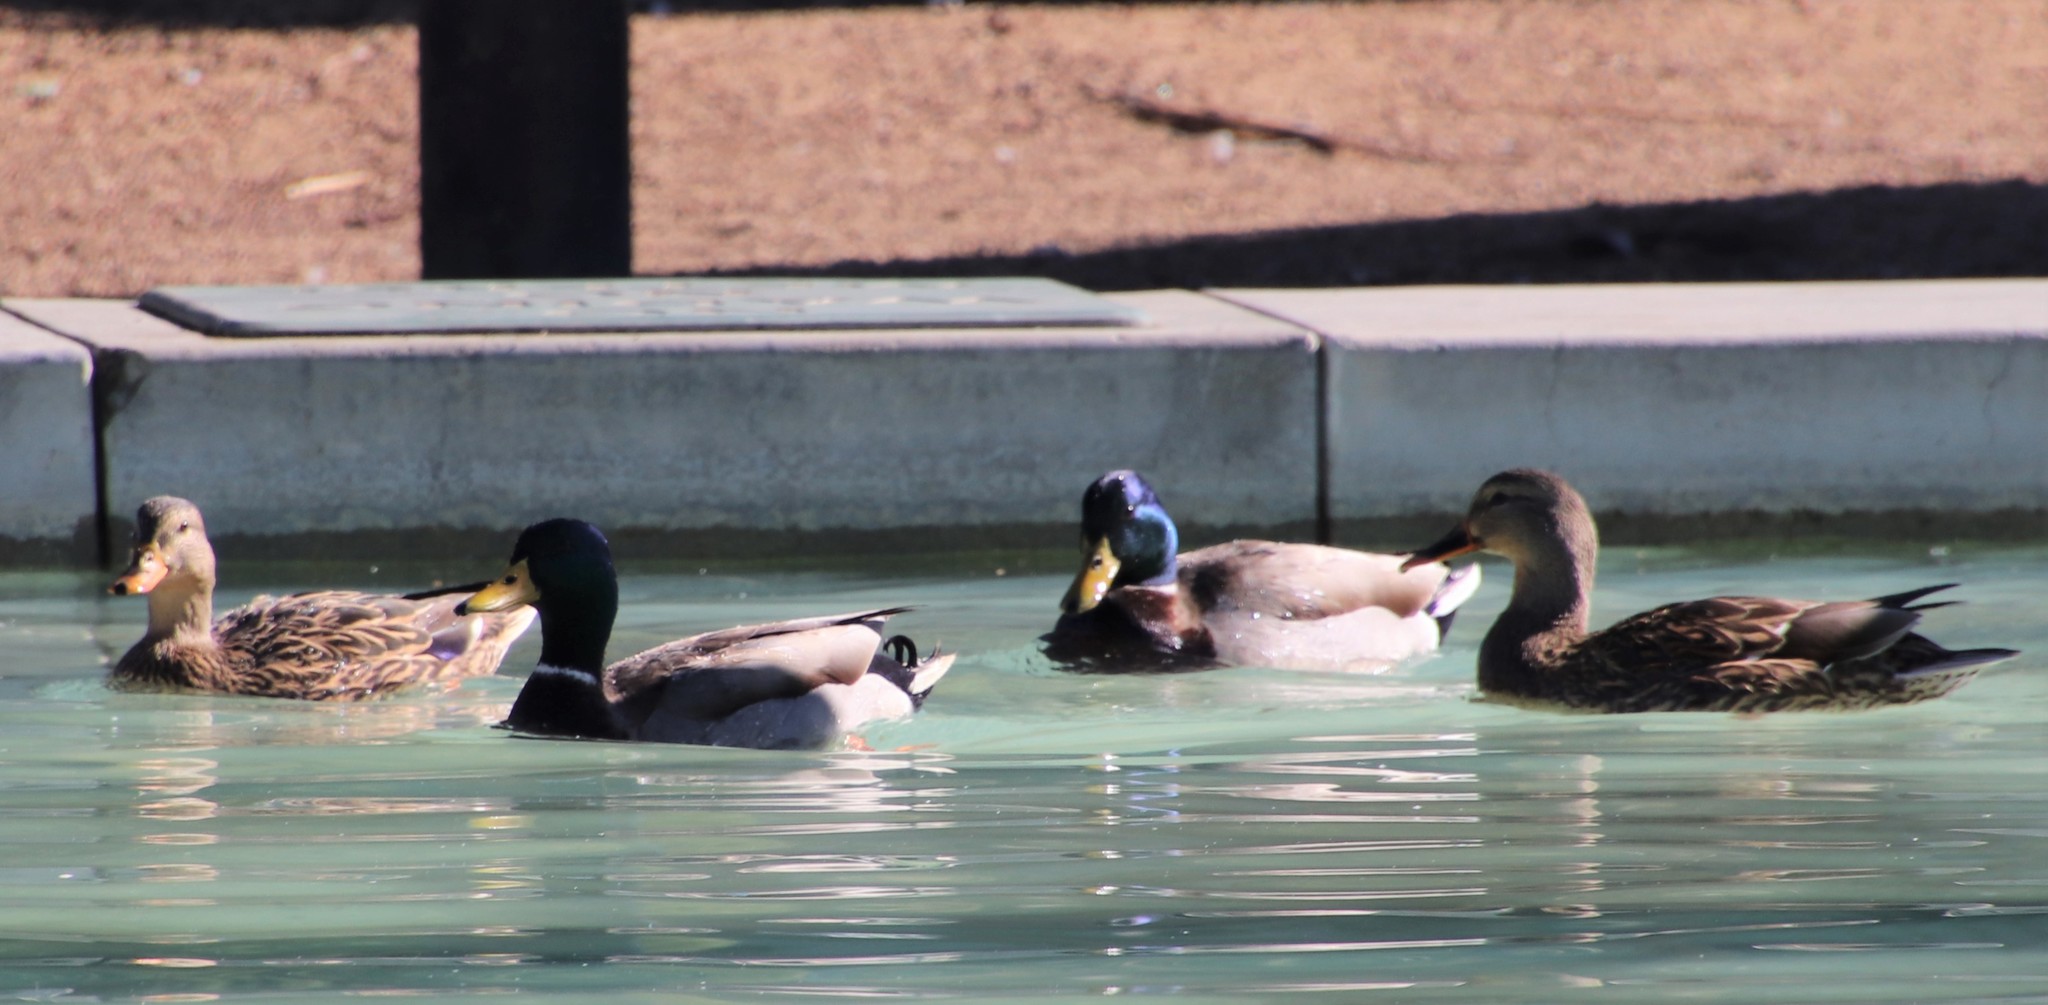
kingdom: Animalia
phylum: Chordata
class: Aves
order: Anseriformes
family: Anatidae
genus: Anas
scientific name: Anas platyrhynchos
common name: Mallard
